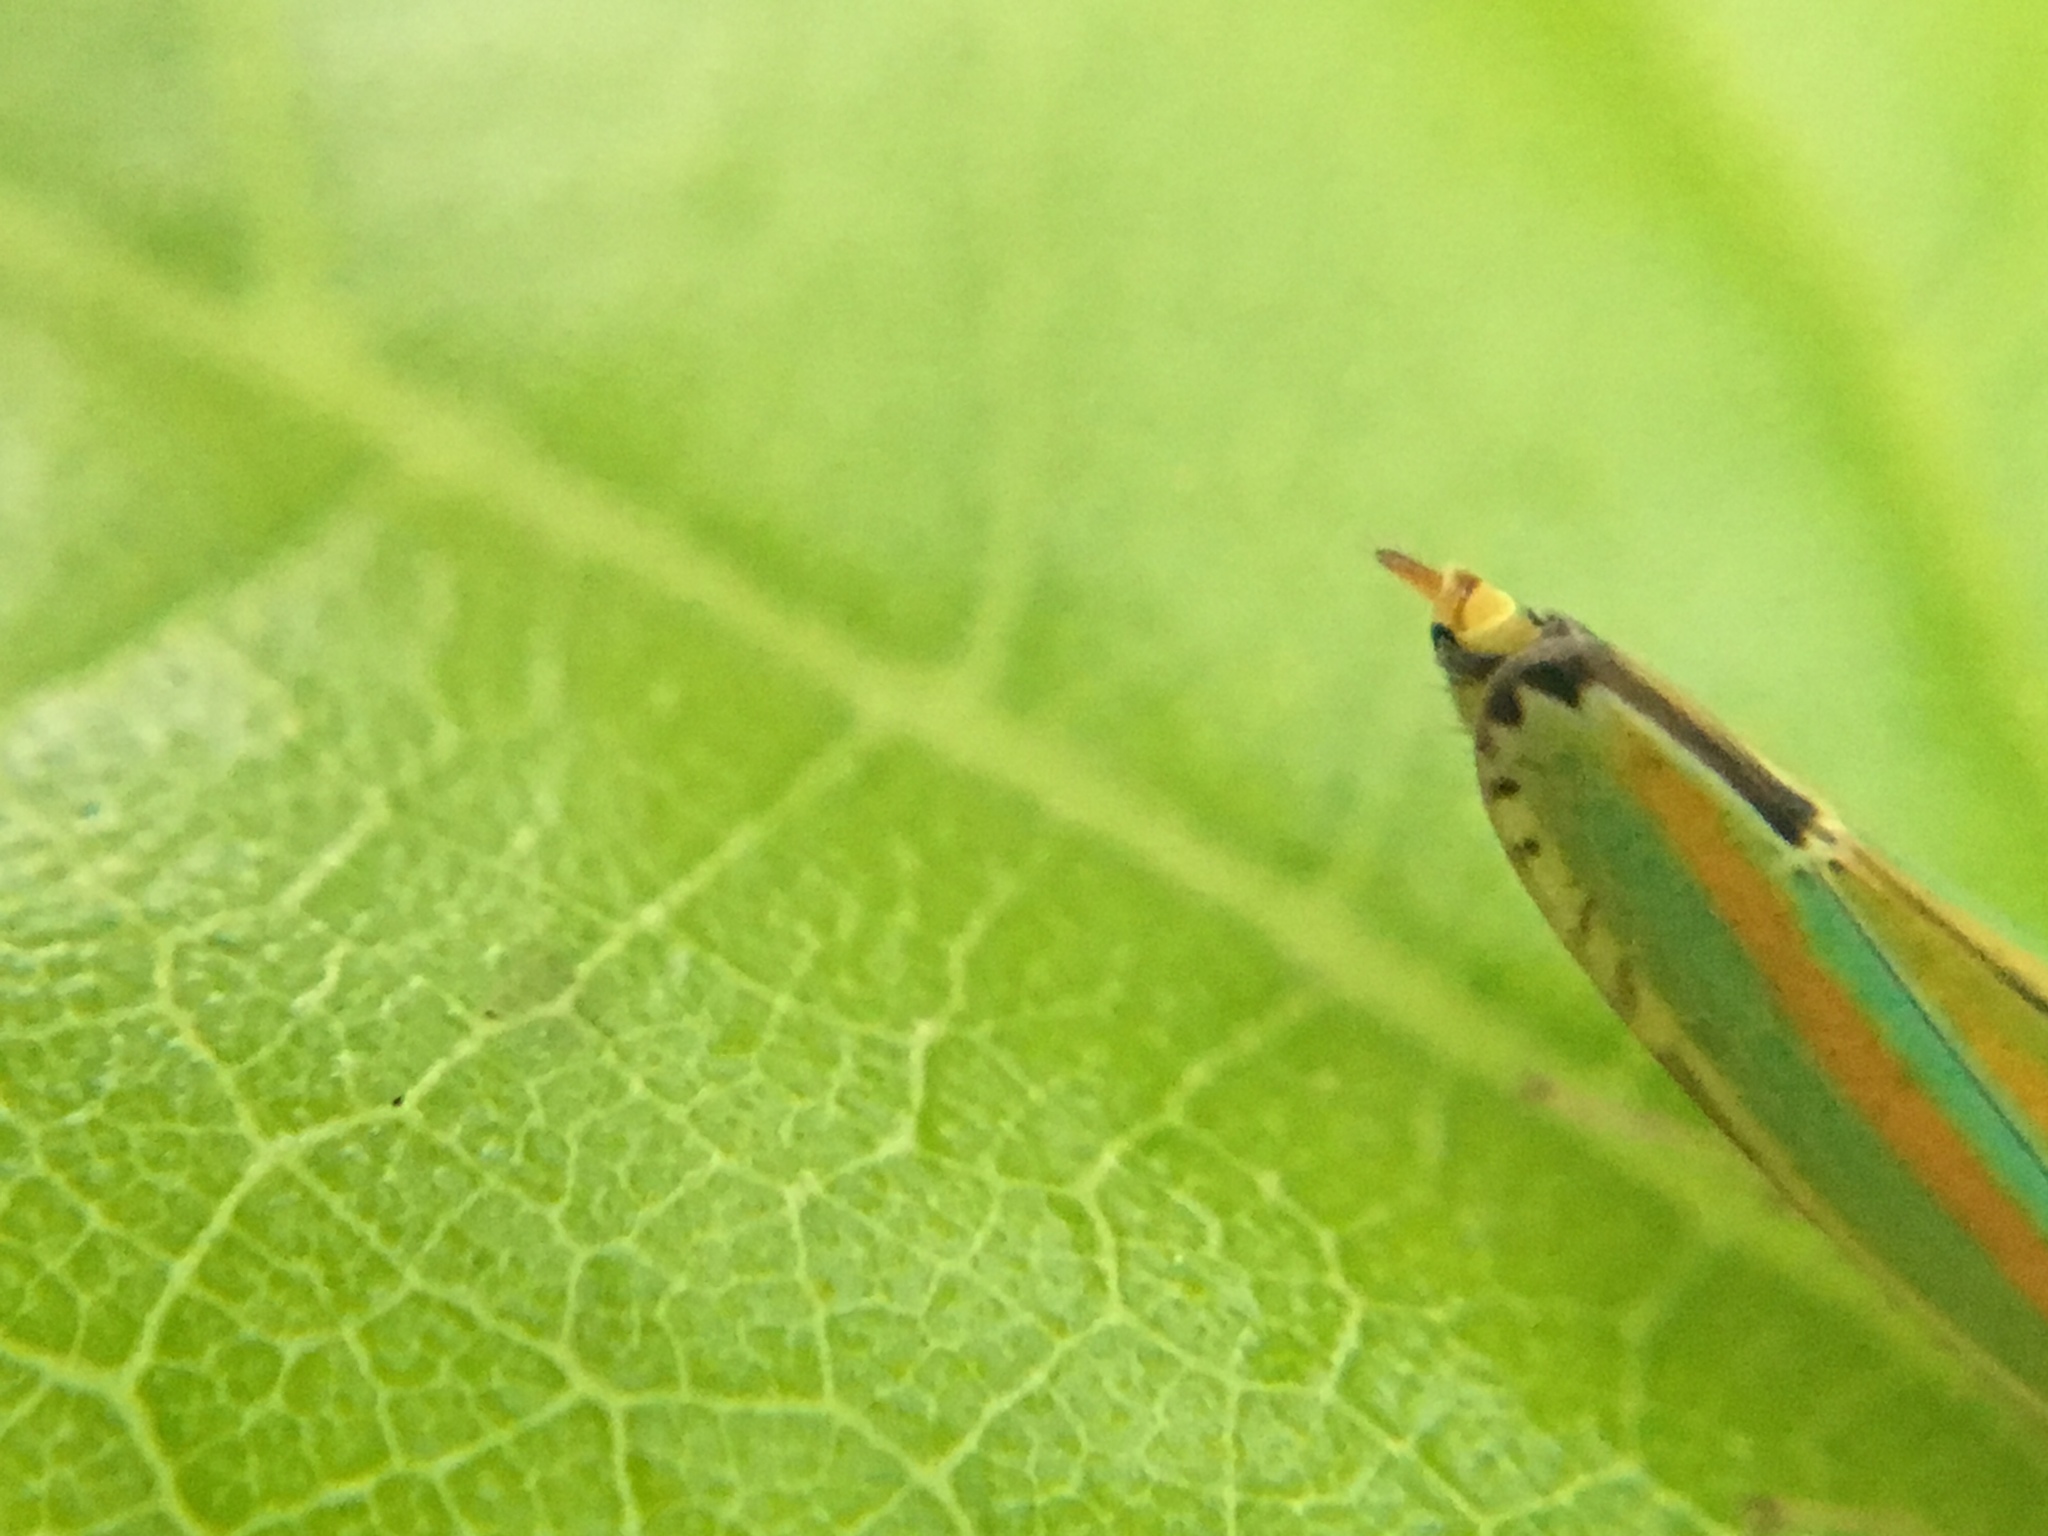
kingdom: Animalia
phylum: Arthropoda
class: Insecta
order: Hemiptera
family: Cicadellidae
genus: Graphocephala
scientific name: Graphocephala versuta
